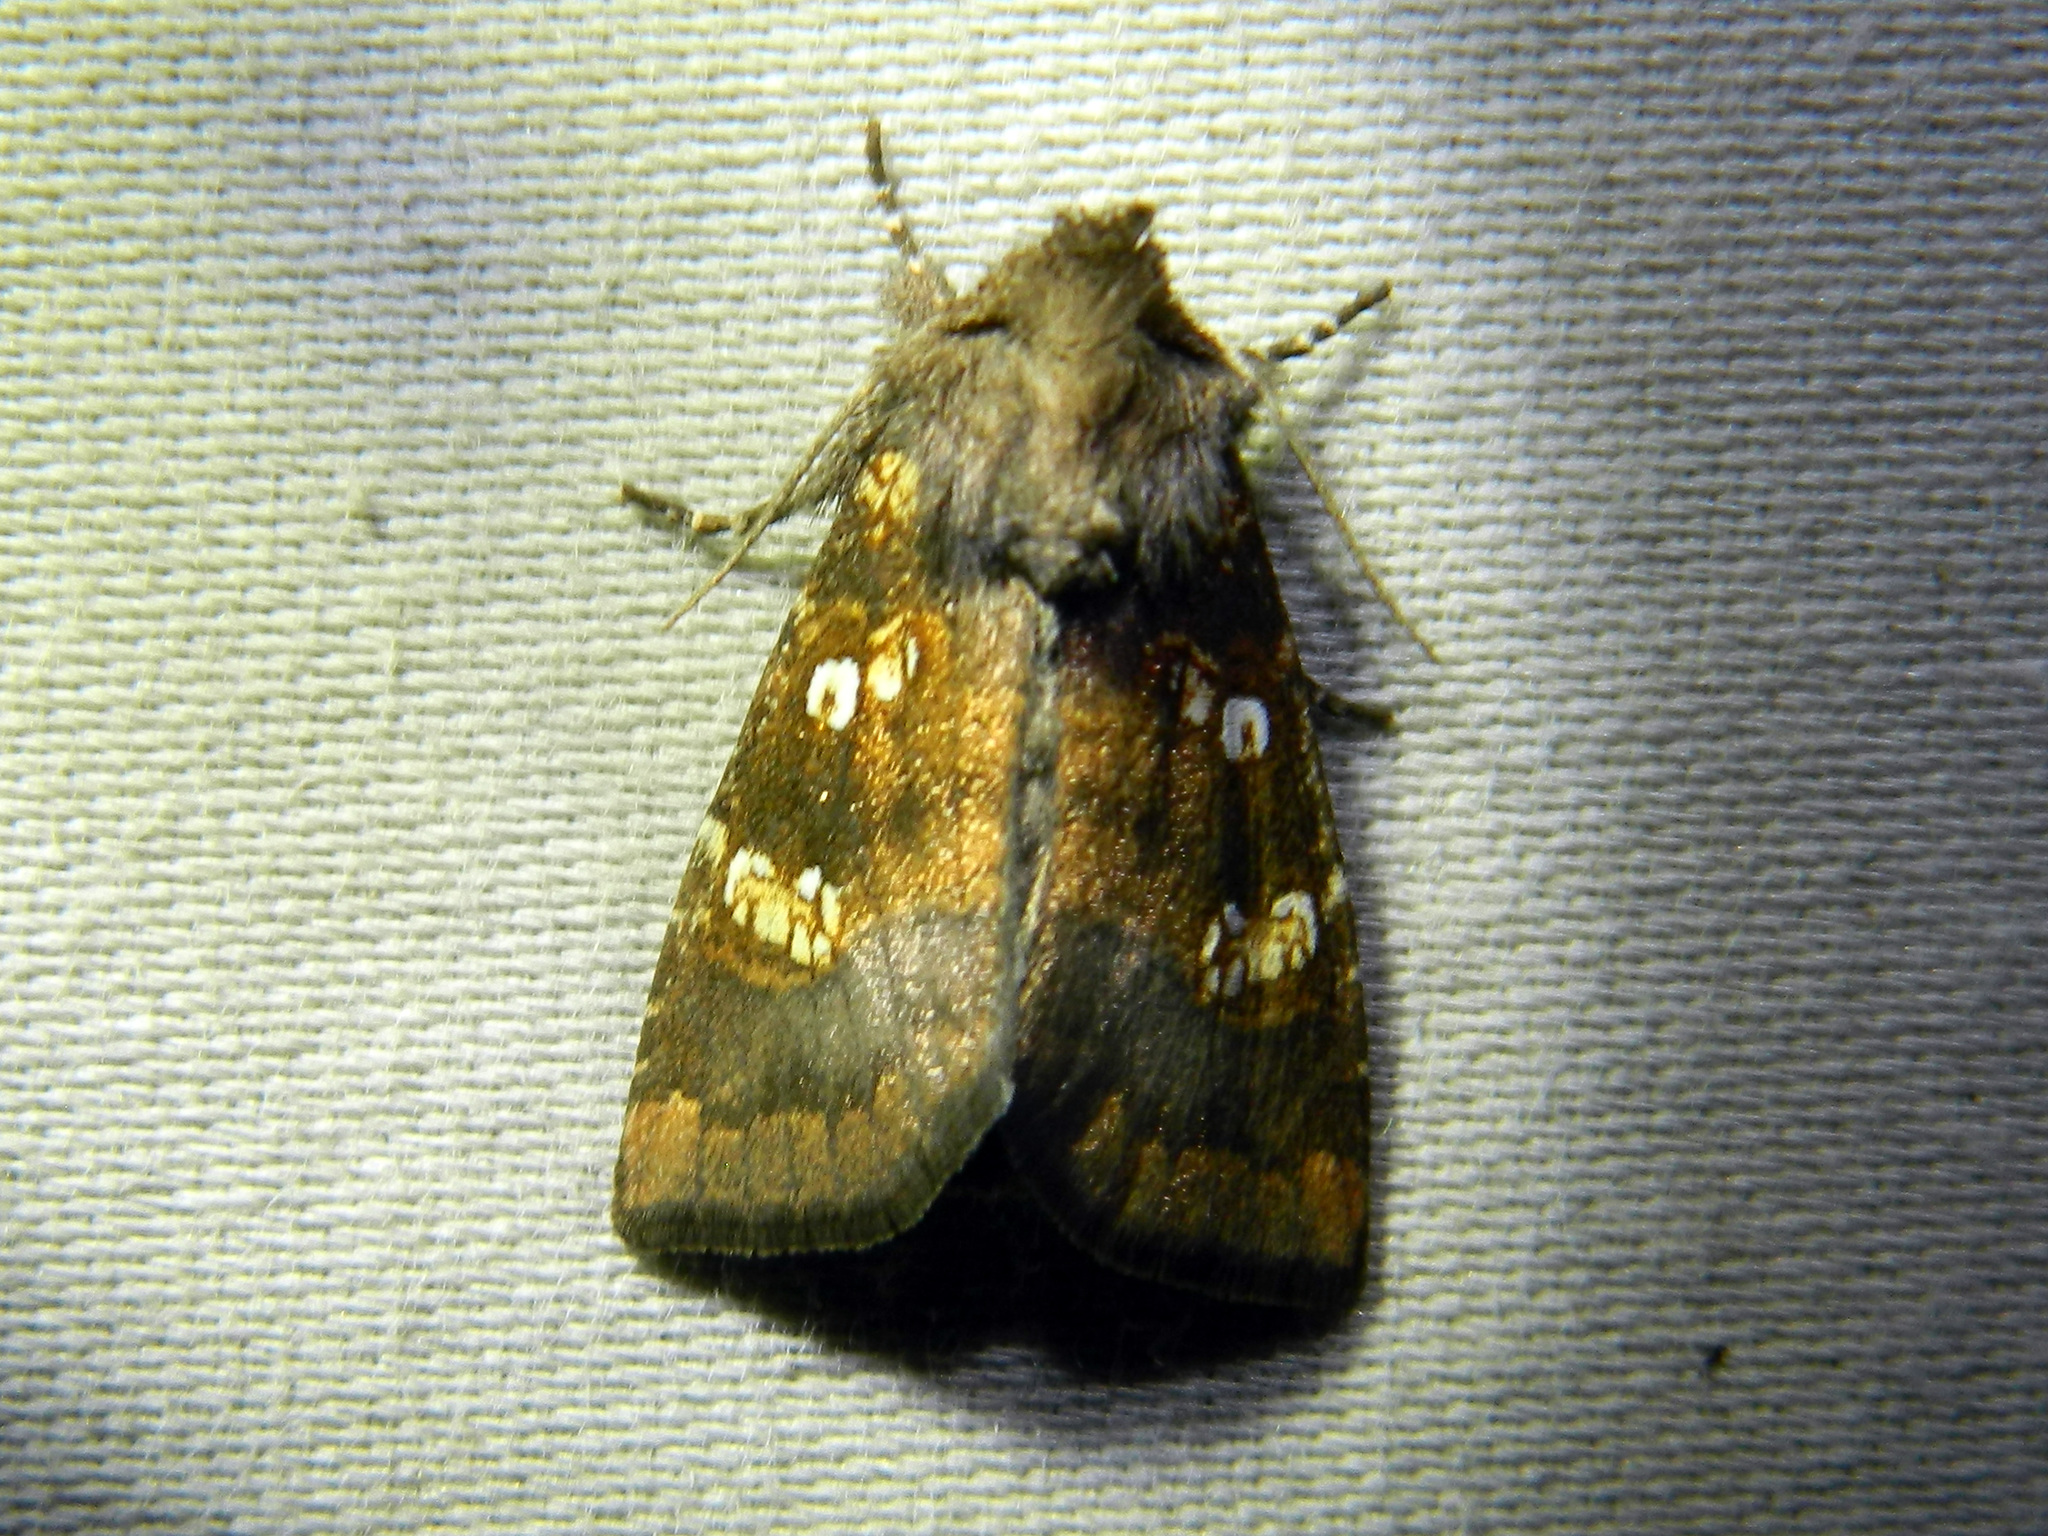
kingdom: Animalia
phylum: Arthropoda
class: Insecta
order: Lepidoptera
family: Noctuidae
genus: Papaipema
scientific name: Papaipema unimoda
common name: Meadow rue borer moth
